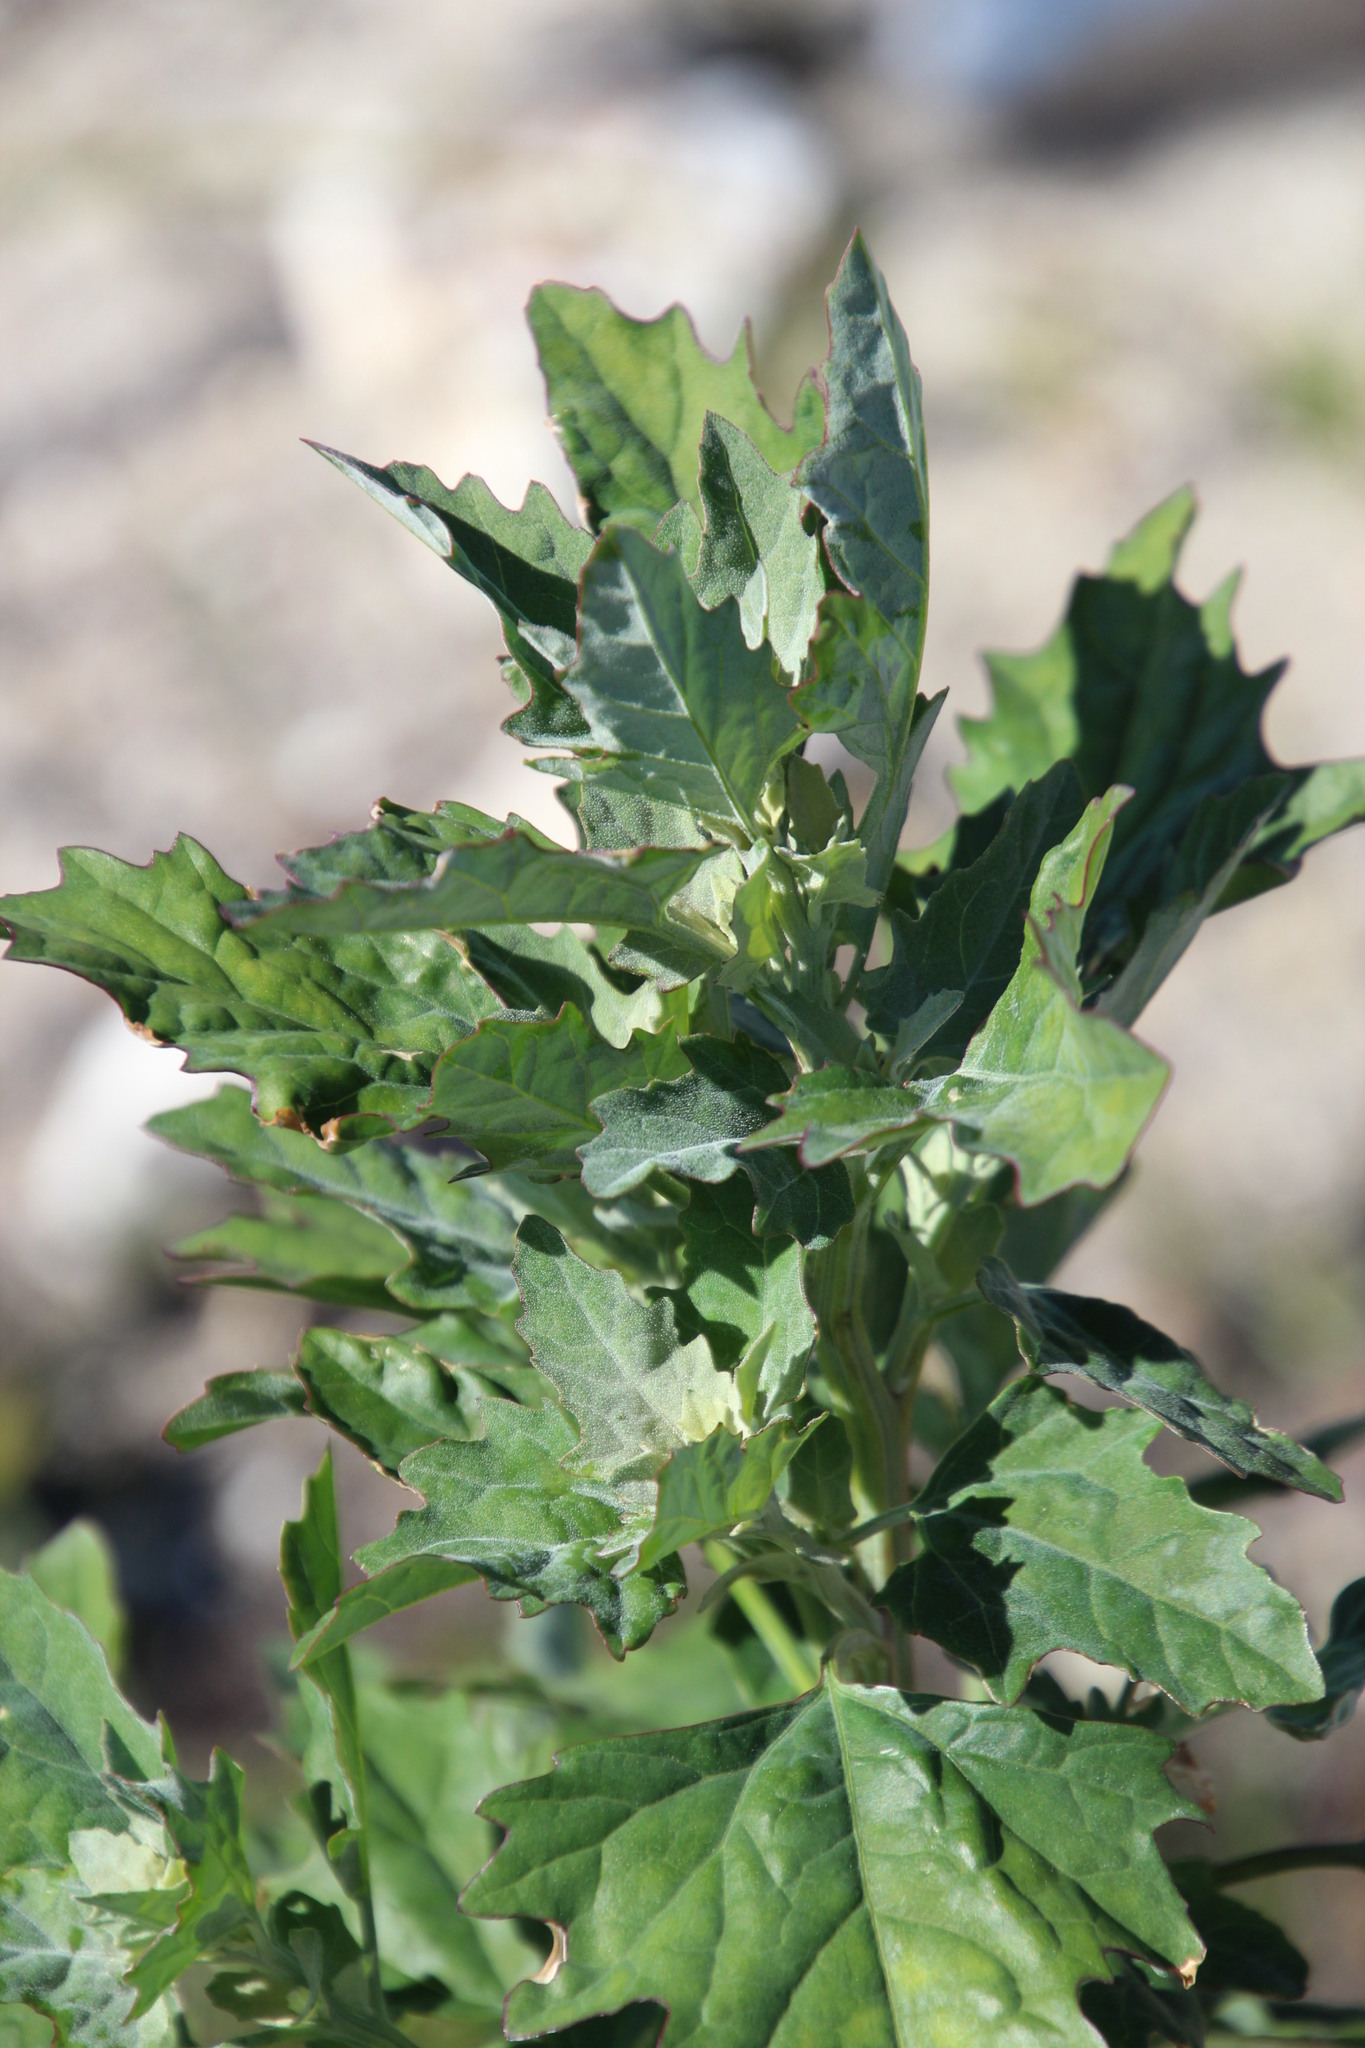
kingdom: Plantae
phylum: Tracheophyta
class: Magnoliopsida
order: Caryophyllales
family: Amaranthaceae
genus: Chenopodium
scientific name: Chenopodium album
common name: Fat-hen
